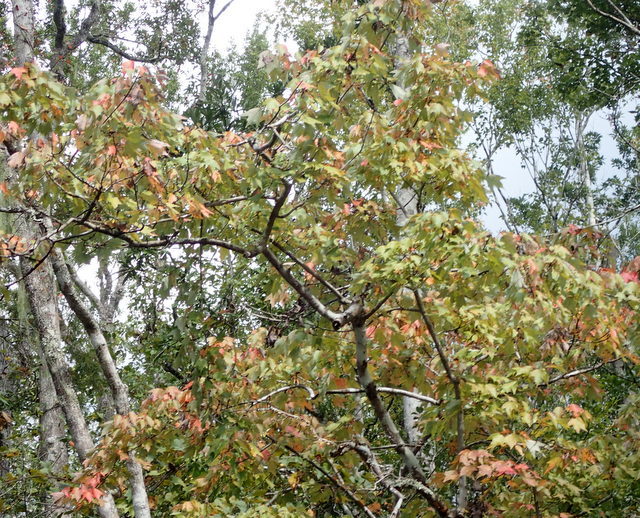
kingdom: Plantae
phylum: Tracheophyta
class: Magnoliopsida
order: Sapindales
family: Sapindaceae
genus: Acer
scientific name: Acer rubrum
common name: Red maple
